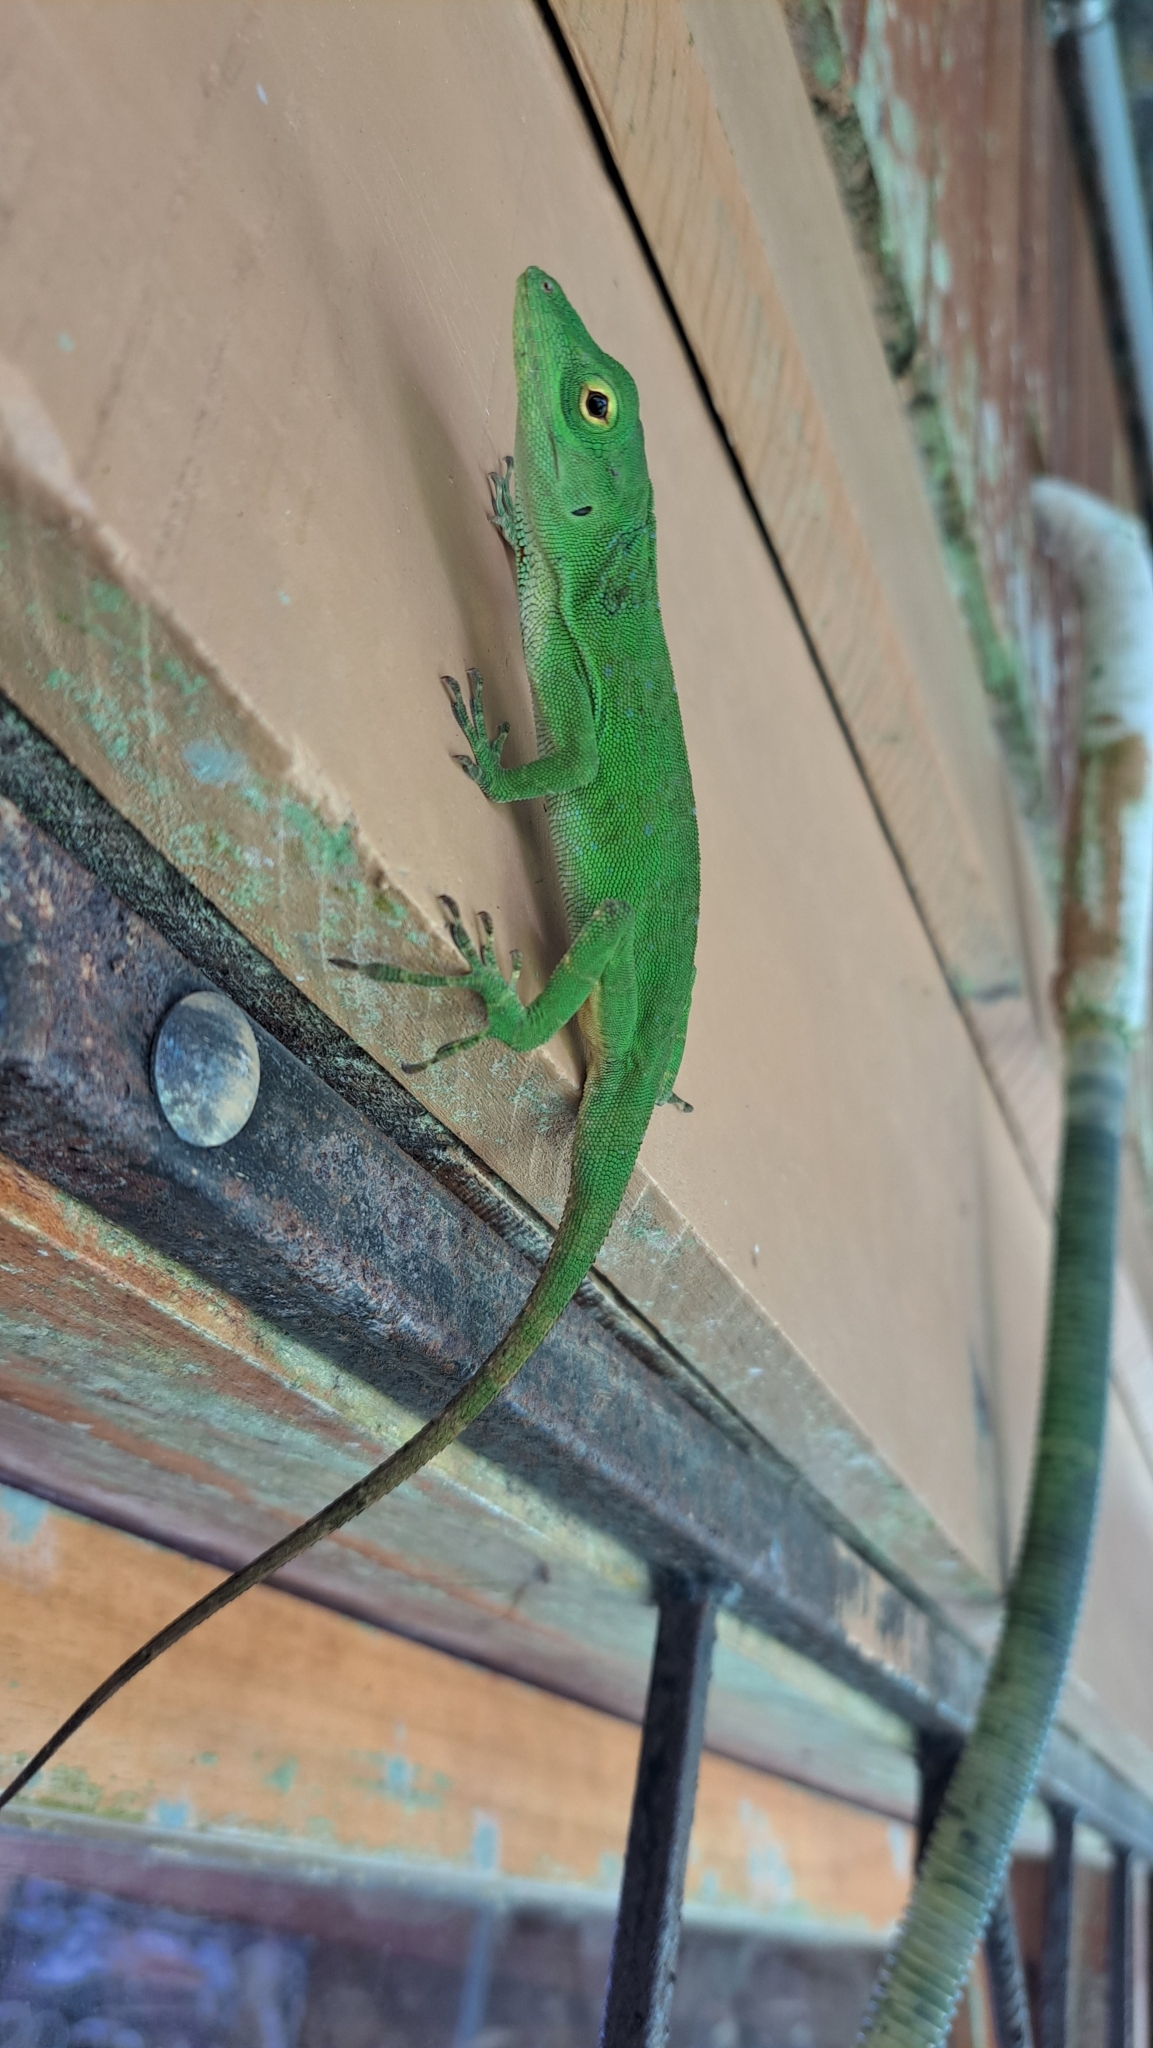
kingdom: Animalia
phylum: Chordata
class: Squamata
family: Dactyloidae
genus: Anolis
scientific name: Anolis biporcatus
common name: Giant green anole
